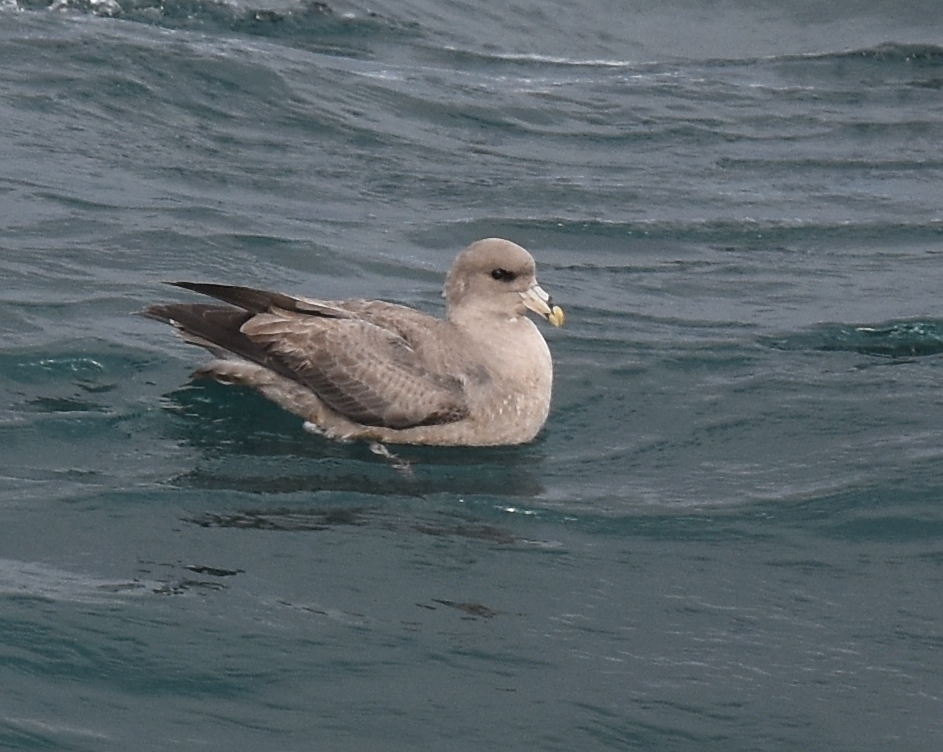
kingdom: Animalia
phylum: Chordata
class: Aves
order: Procellariiformes
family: Procellariidae
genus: Fulmarus
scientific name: Fulmarus glacialis
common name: Northern fulmar
